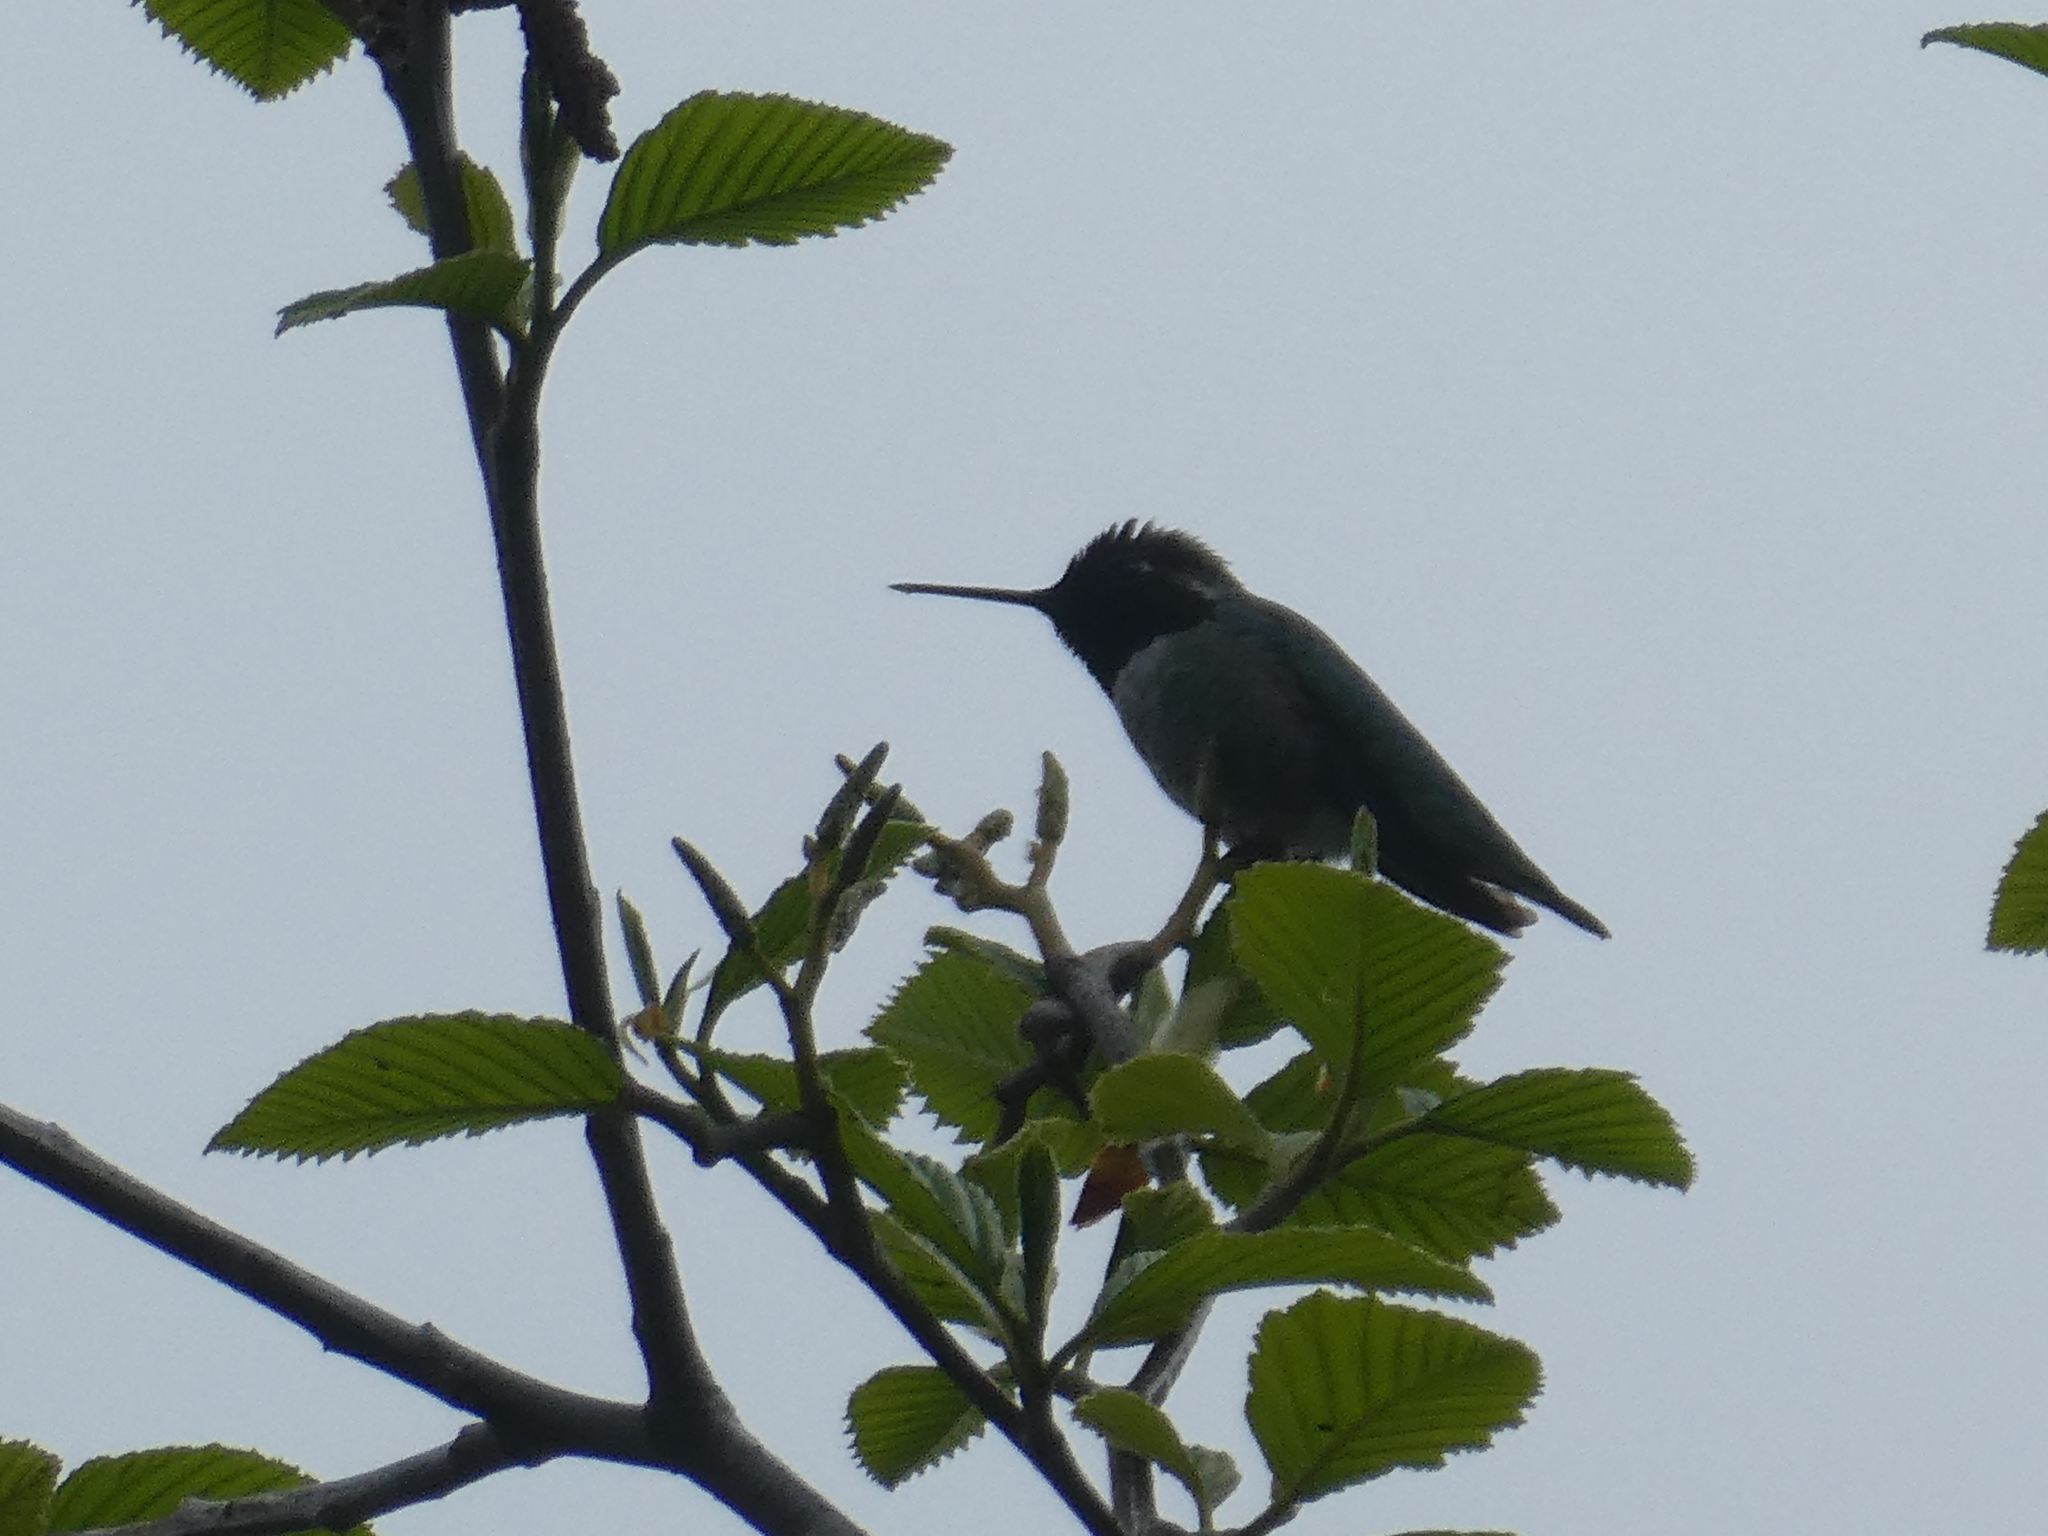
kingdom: Animalia
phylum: Chordata
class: Aves
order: Apodiformes
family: Trochilidae
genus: Calypte
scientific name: Calypte anna
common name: Anna's hummingbird
